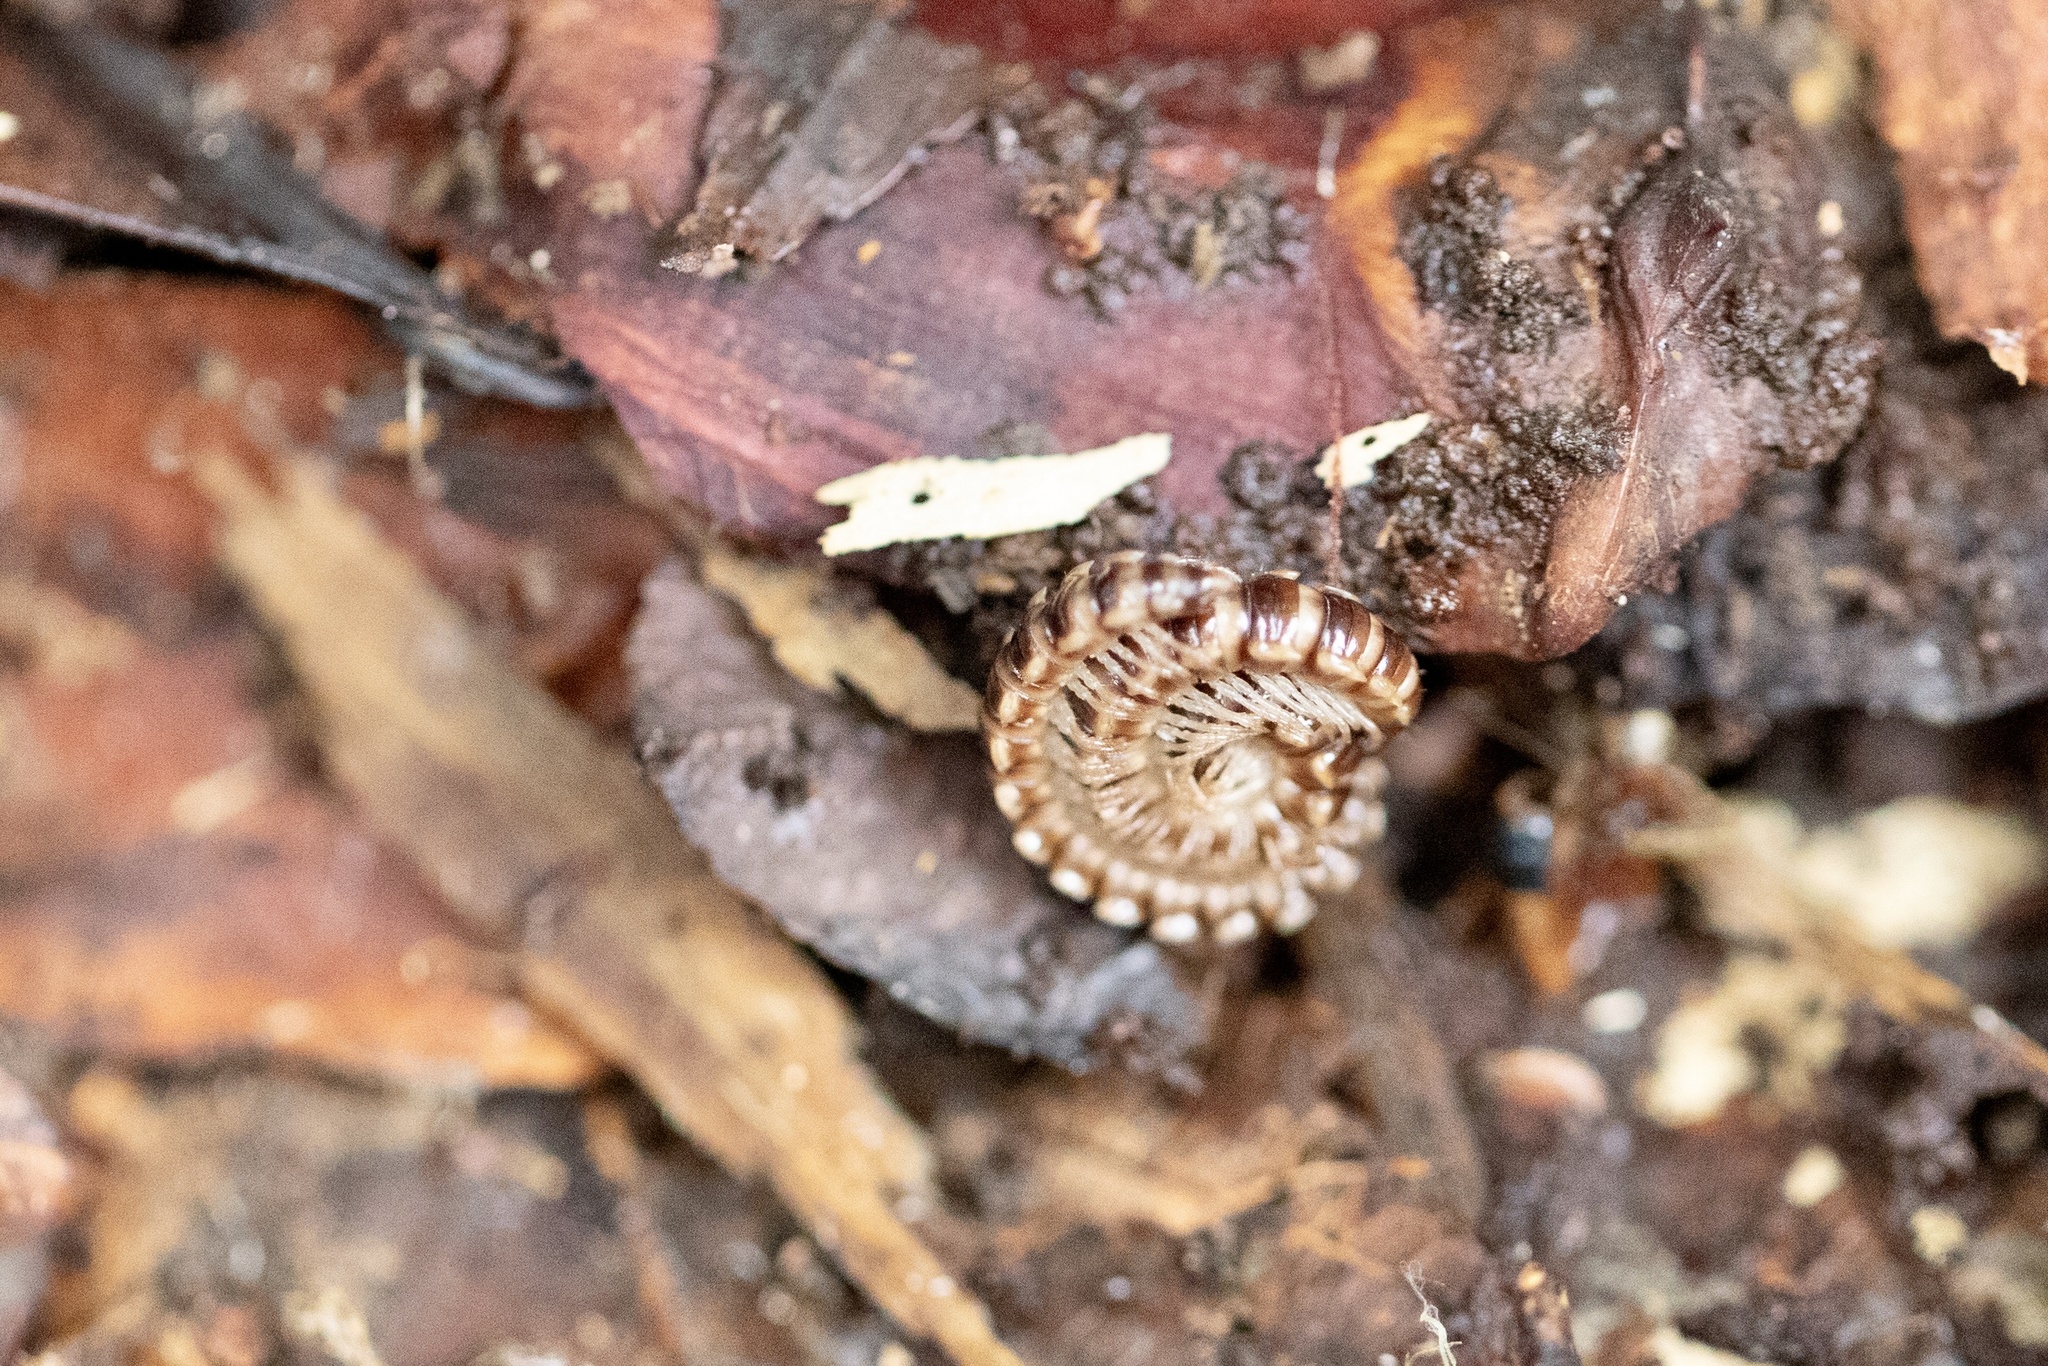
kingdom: Animalia
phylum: Arthropoda
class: Diplopoda
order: Polydesmida
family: Paradoxosomatidae
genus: Oxidus
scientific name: Oxidus gracilis
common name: Greenhouse millipede
